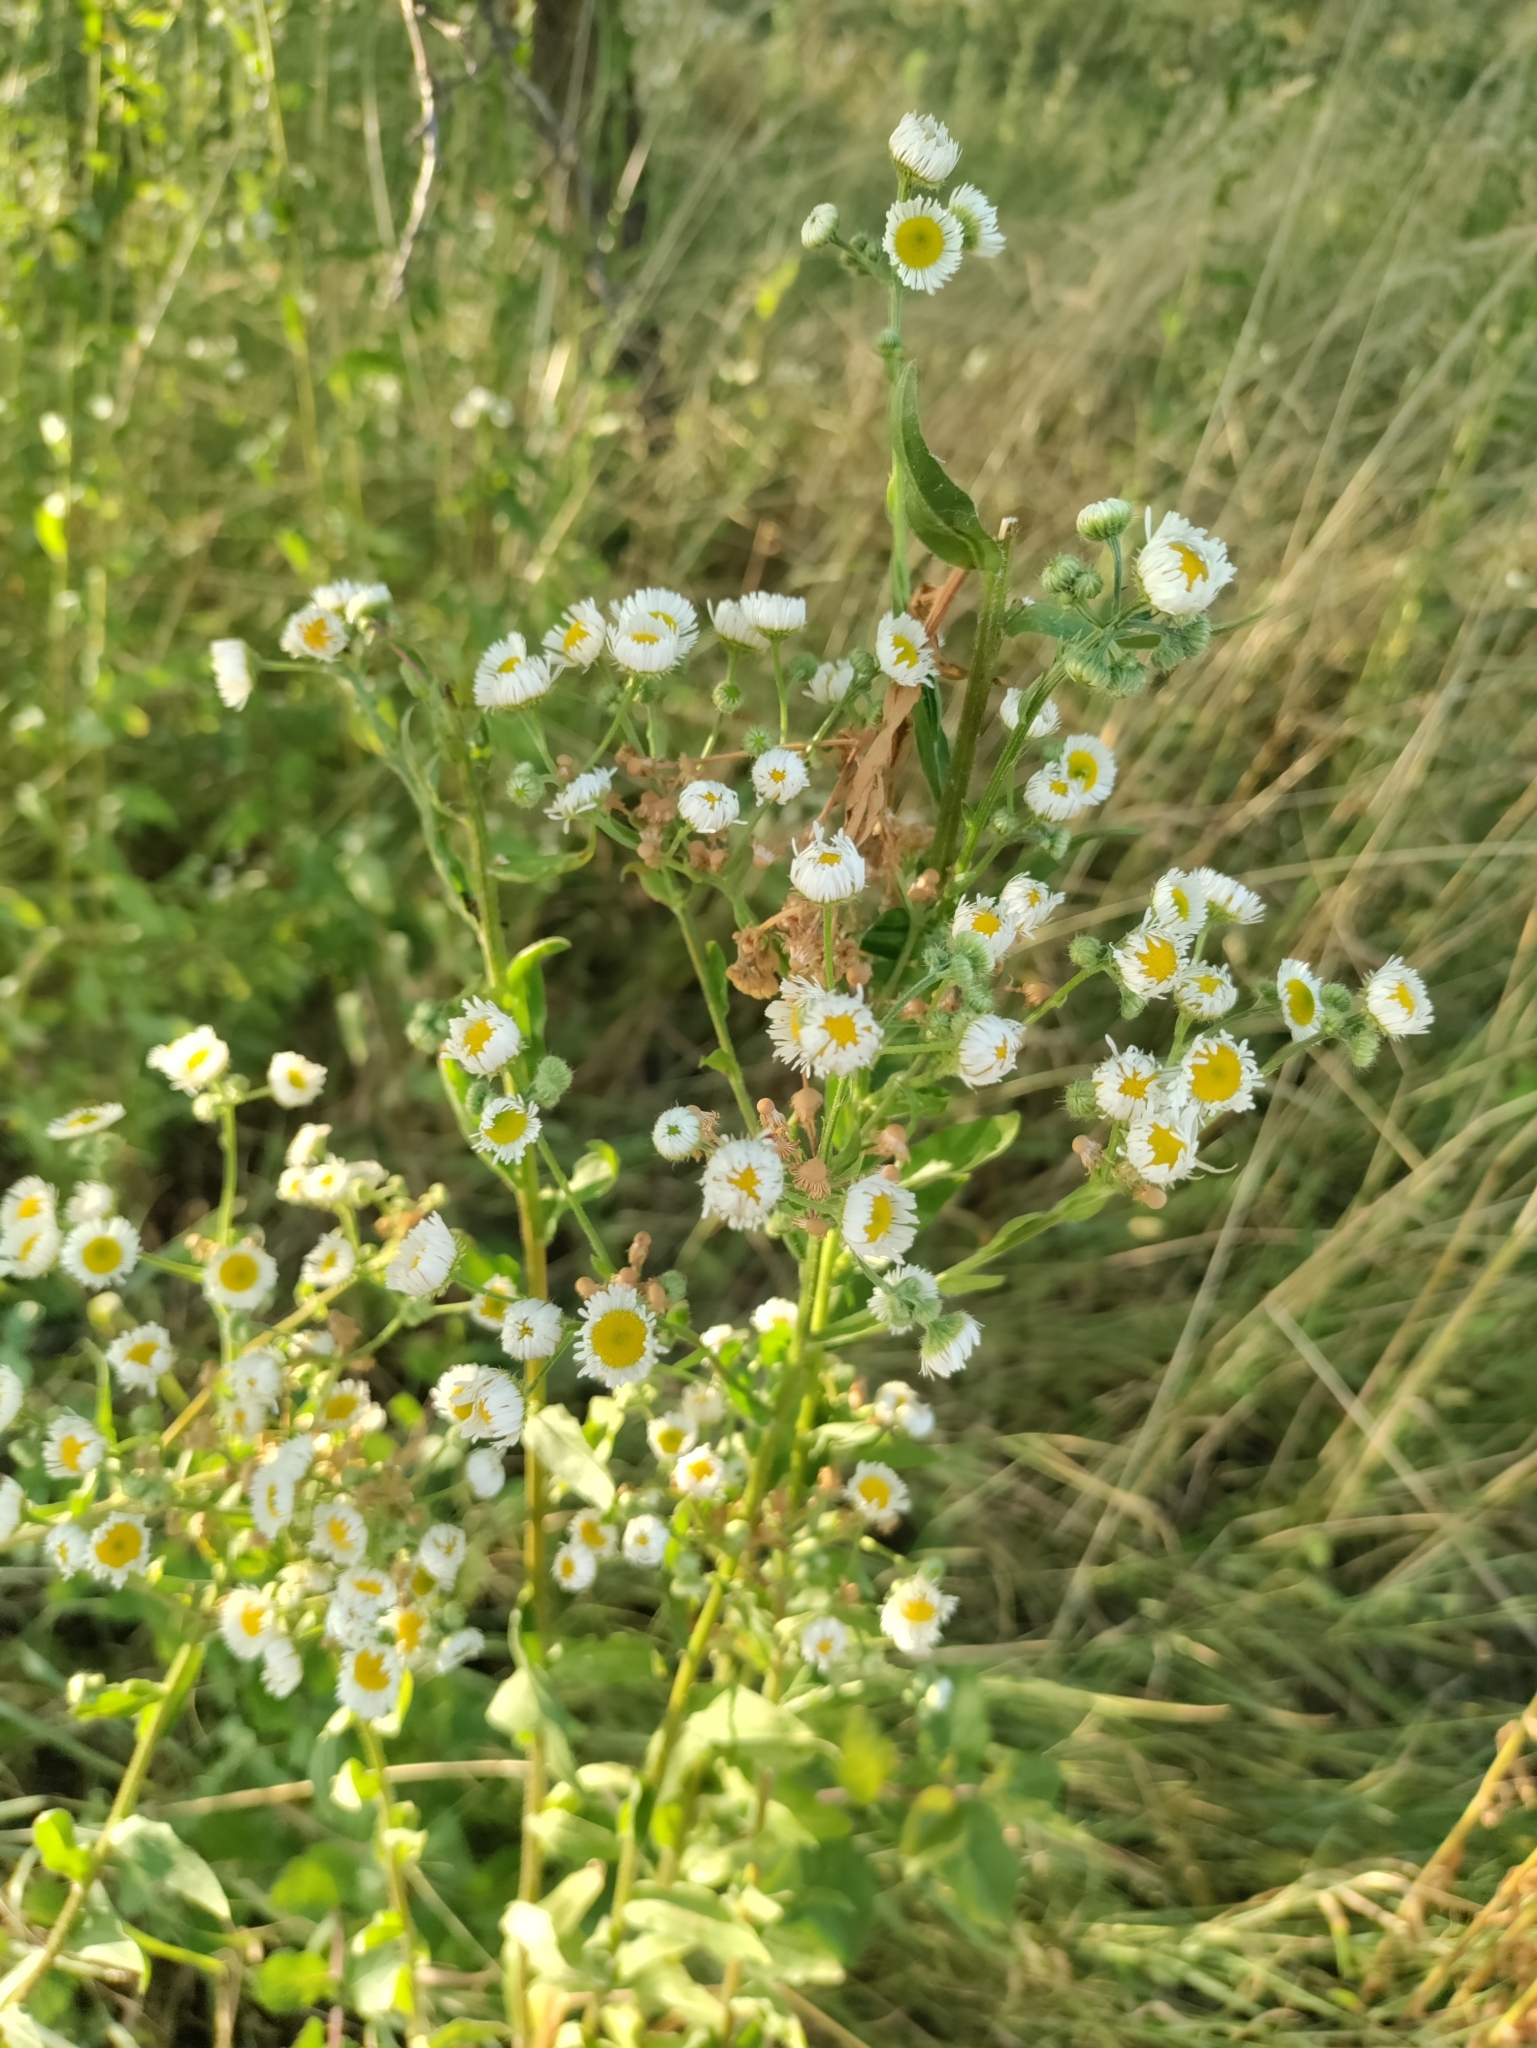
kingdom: Plantae
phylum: Tracheophyta
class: Magnoliopsida
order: Asterales
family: Asteraceae
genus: Erigeron
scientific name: Erigeron annuus
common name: Tall fleabane
